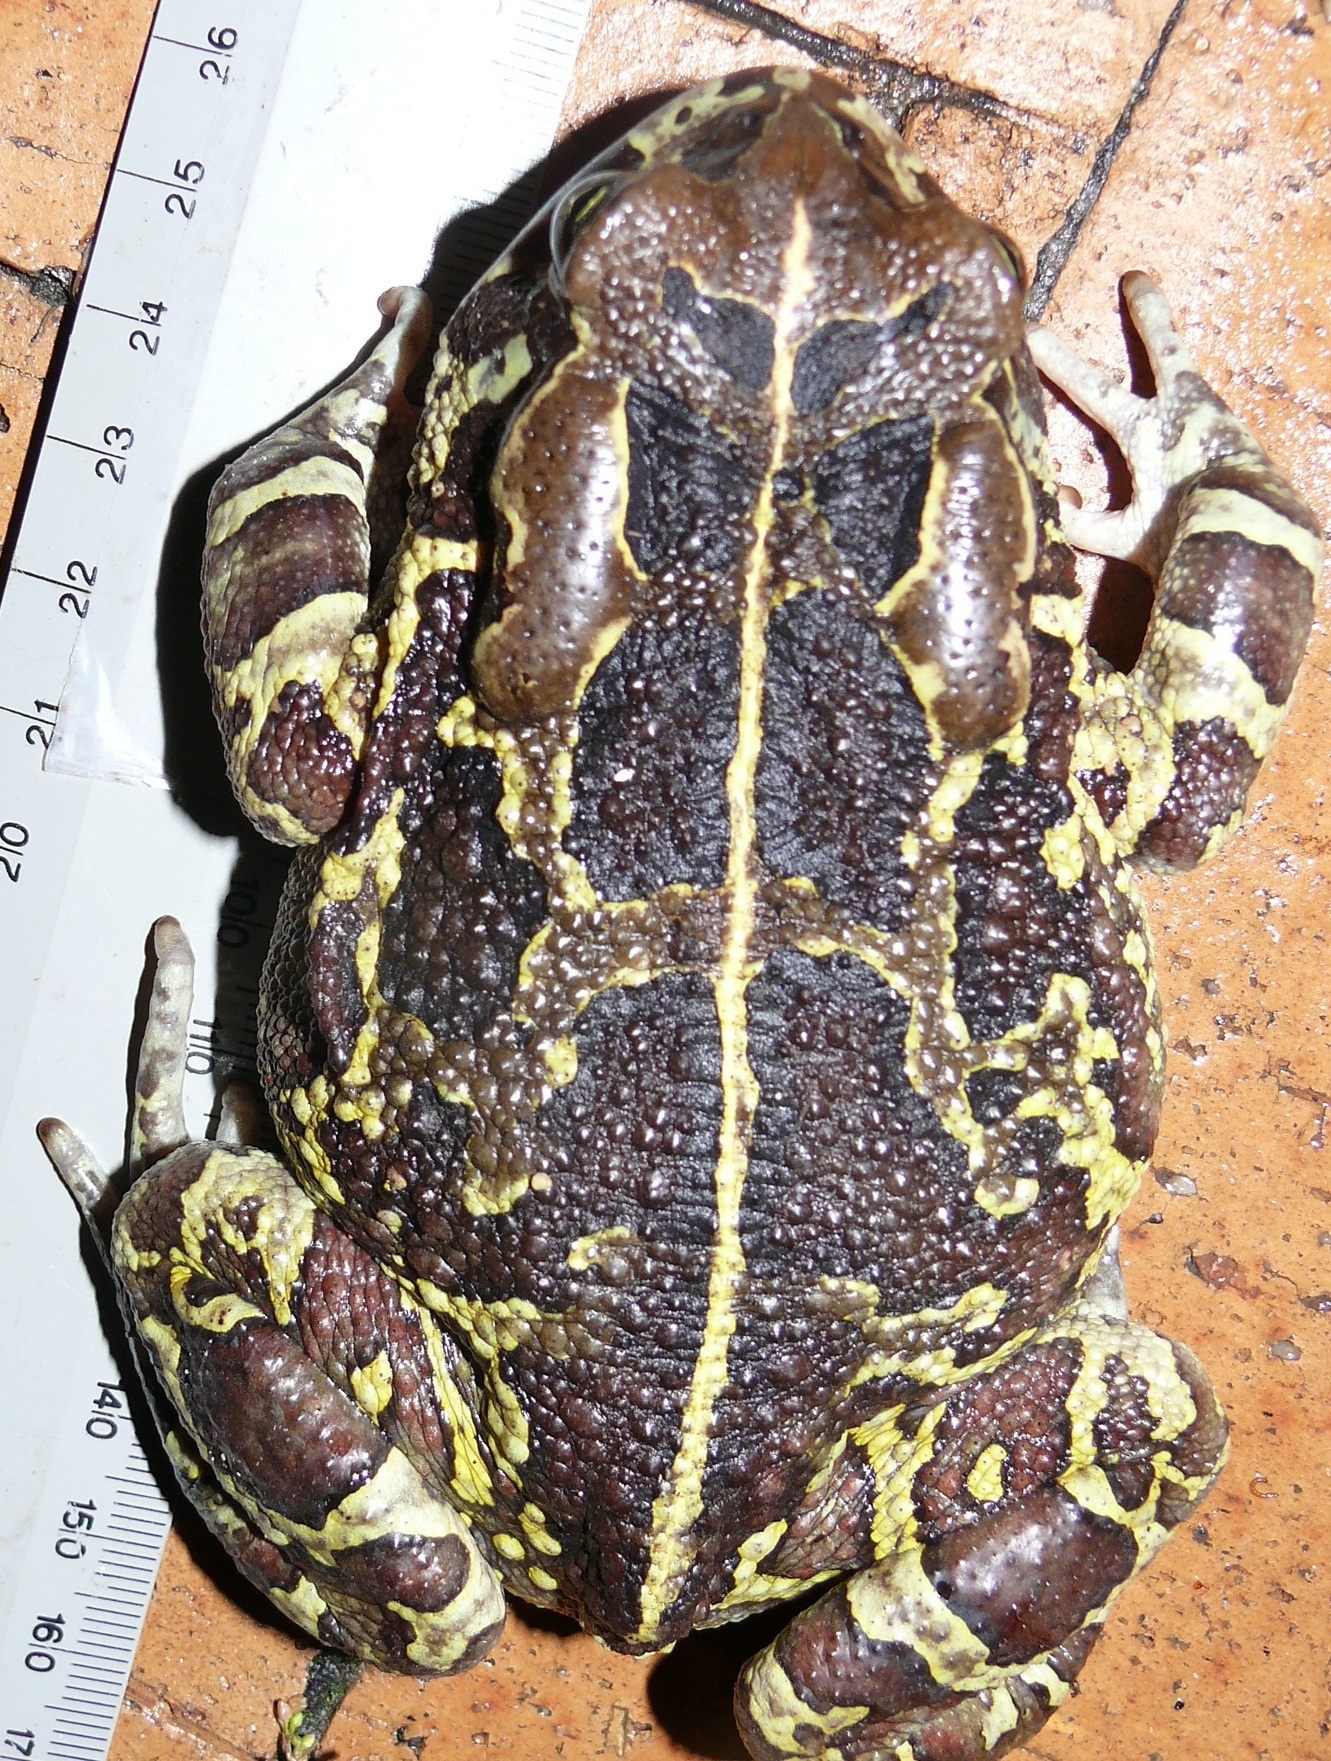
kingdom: Animalia
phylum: Chordata
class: Amphibia
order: Anura
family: Bufonidae
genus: Sclerophrys
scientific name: Sclerophrys pantherina
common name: Panther toad
